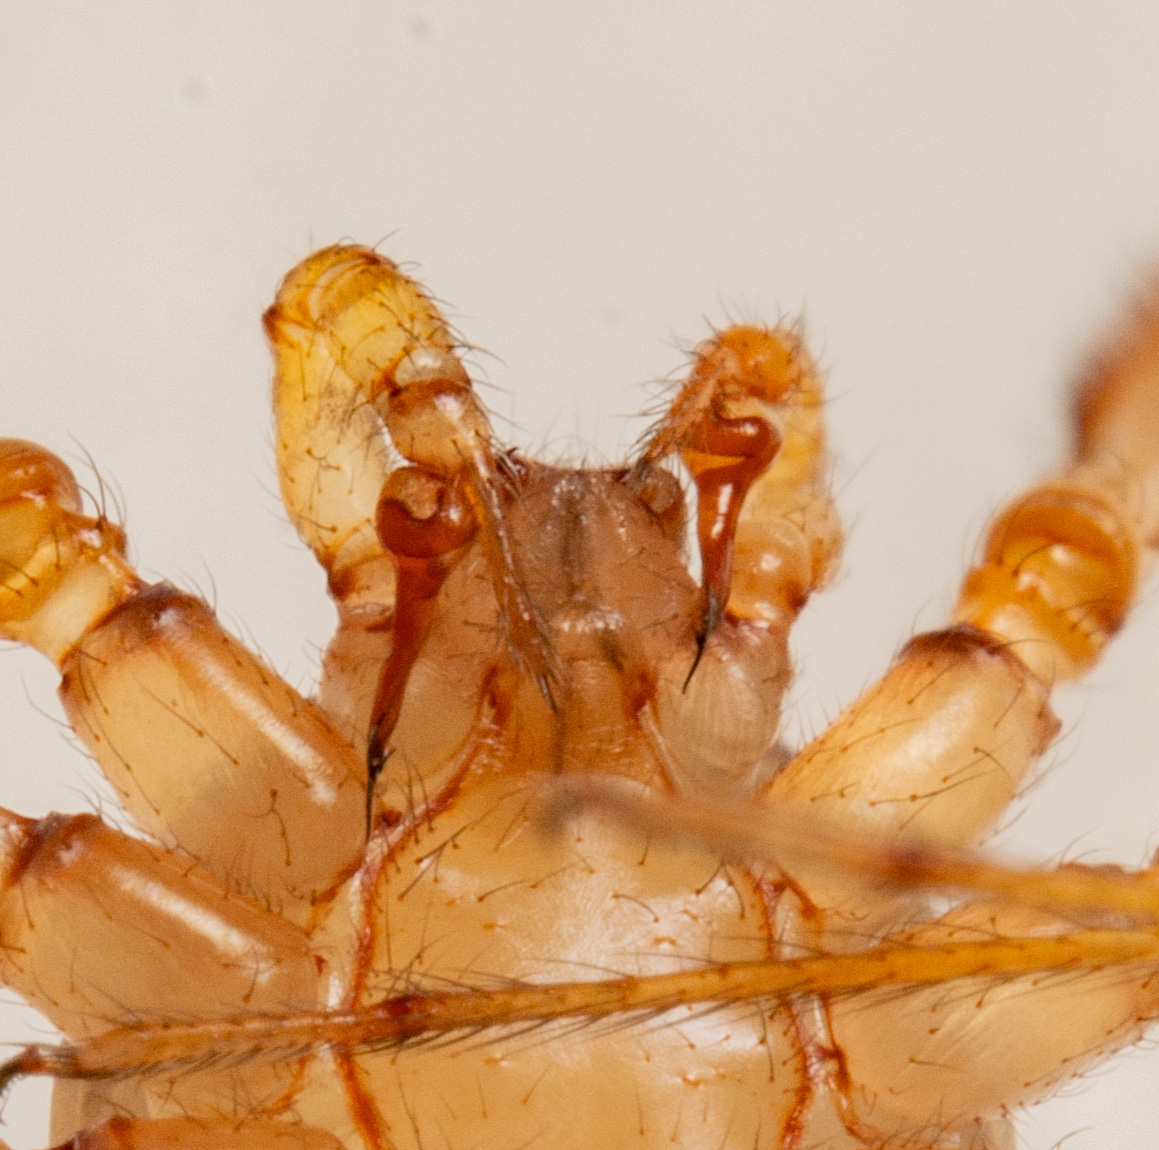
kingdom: Animalia
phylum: Arthropoda
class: Arachnida
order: Araneae
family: Scytodidae
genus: Scytodes
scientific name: Scytodes univittata
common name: Spitting spider
